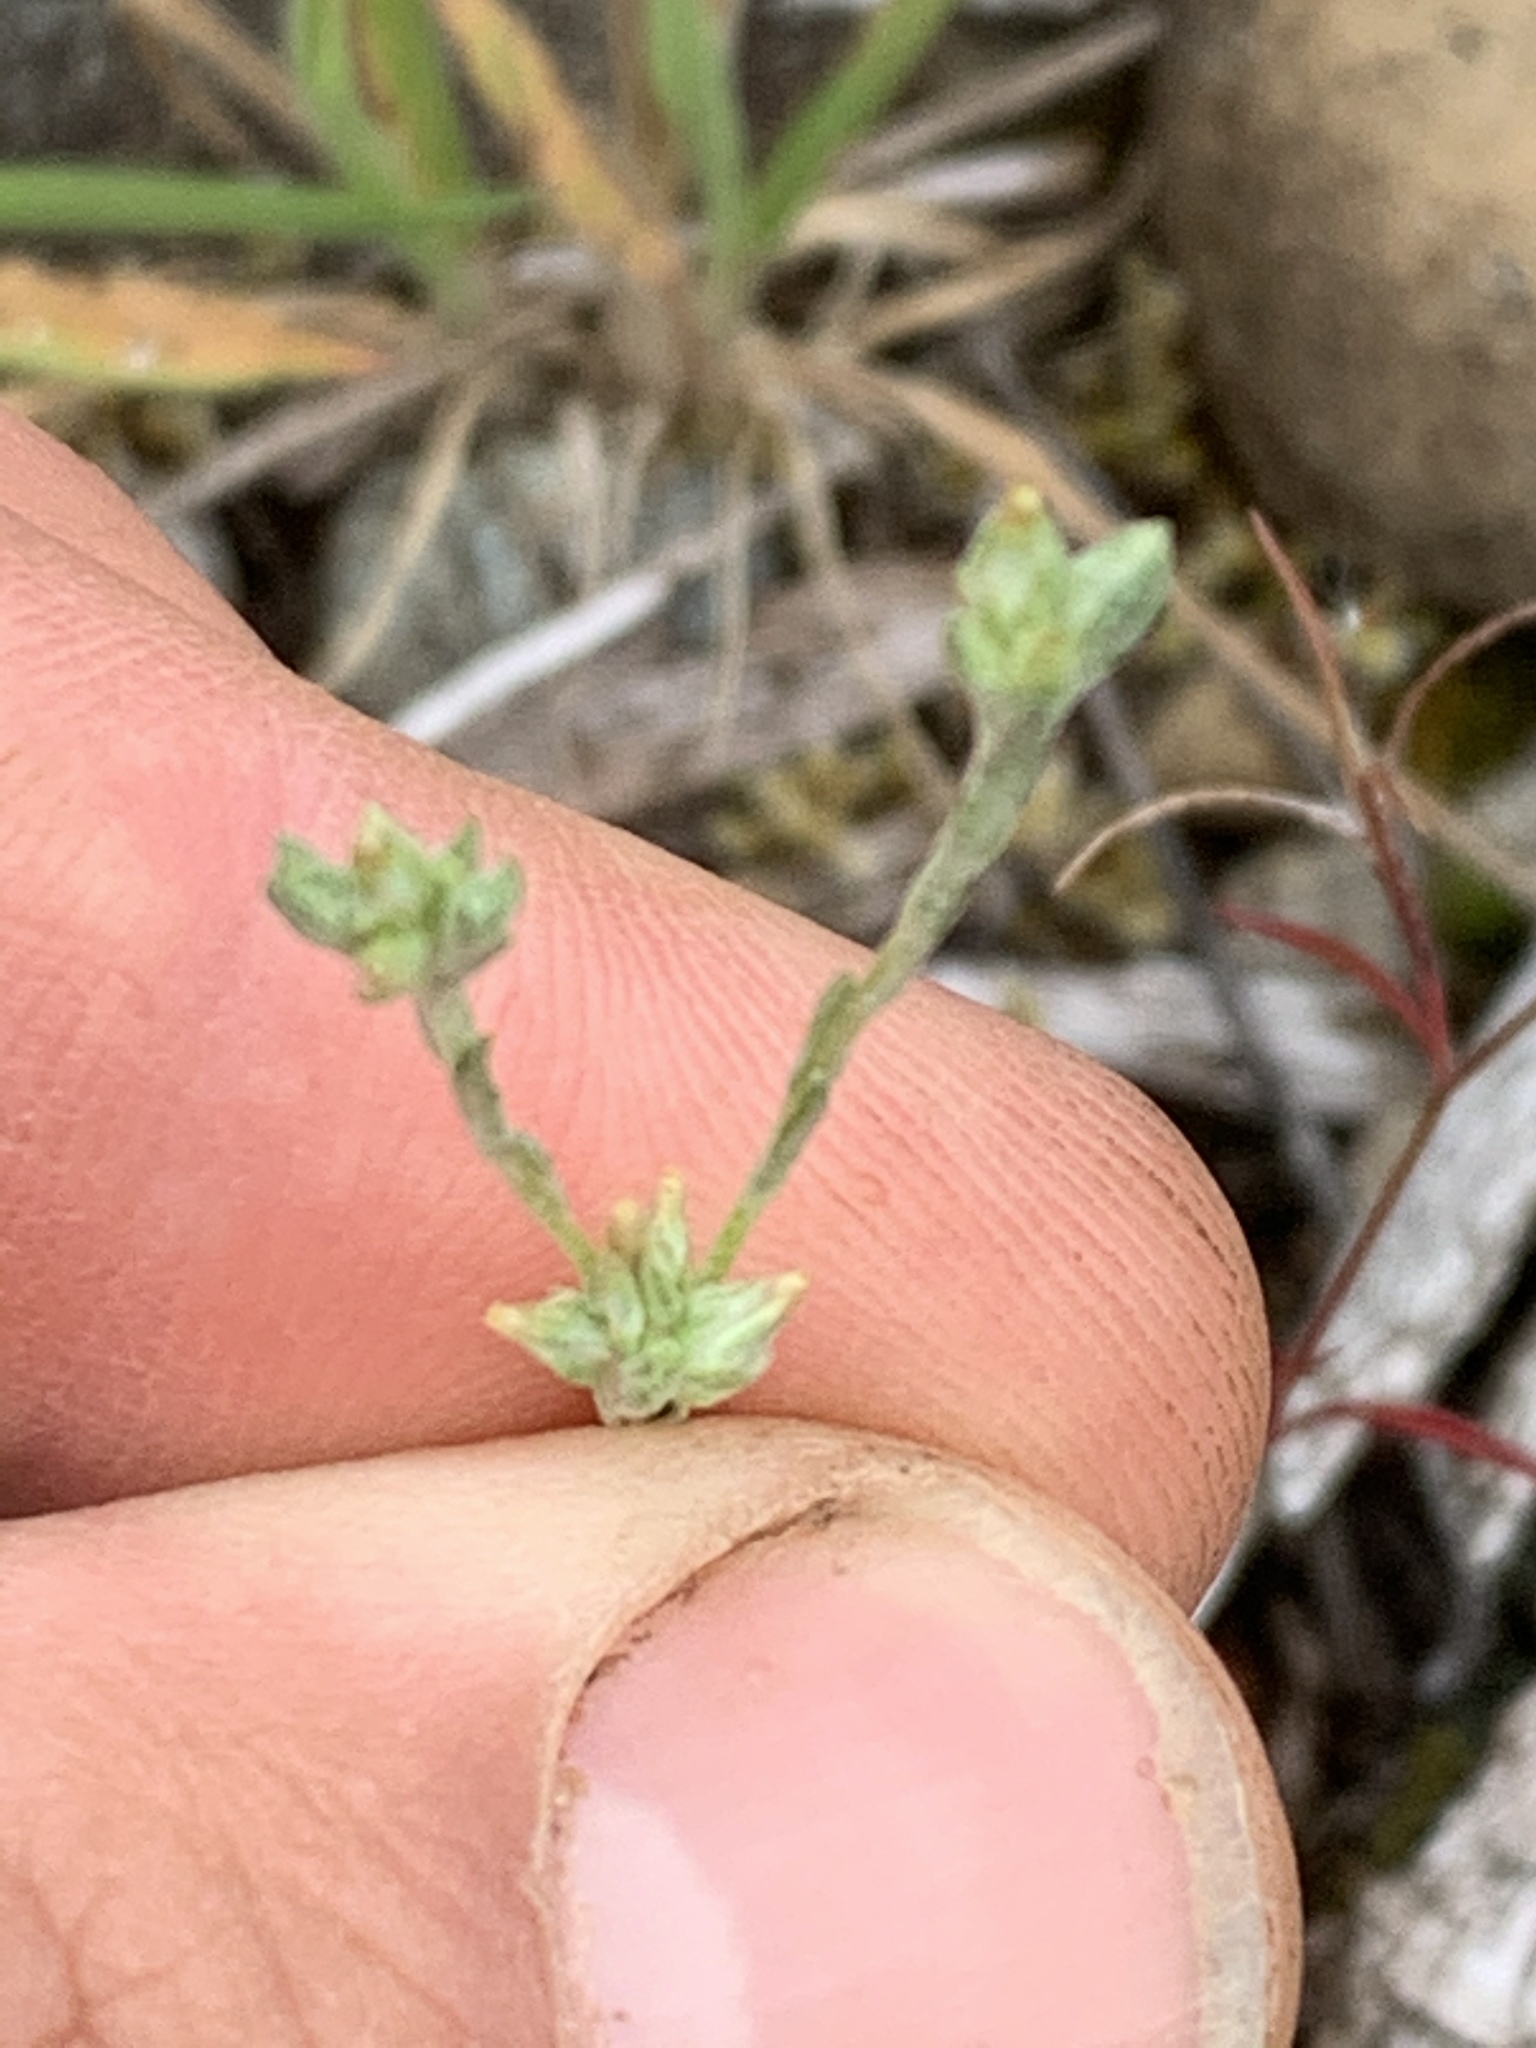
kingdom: Plantae
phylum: Tracheophyta
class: Magnoliopsida
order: Asterales
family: Asteraceae
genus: Logfia
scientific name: Logfia minima
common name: Little cottonrose
